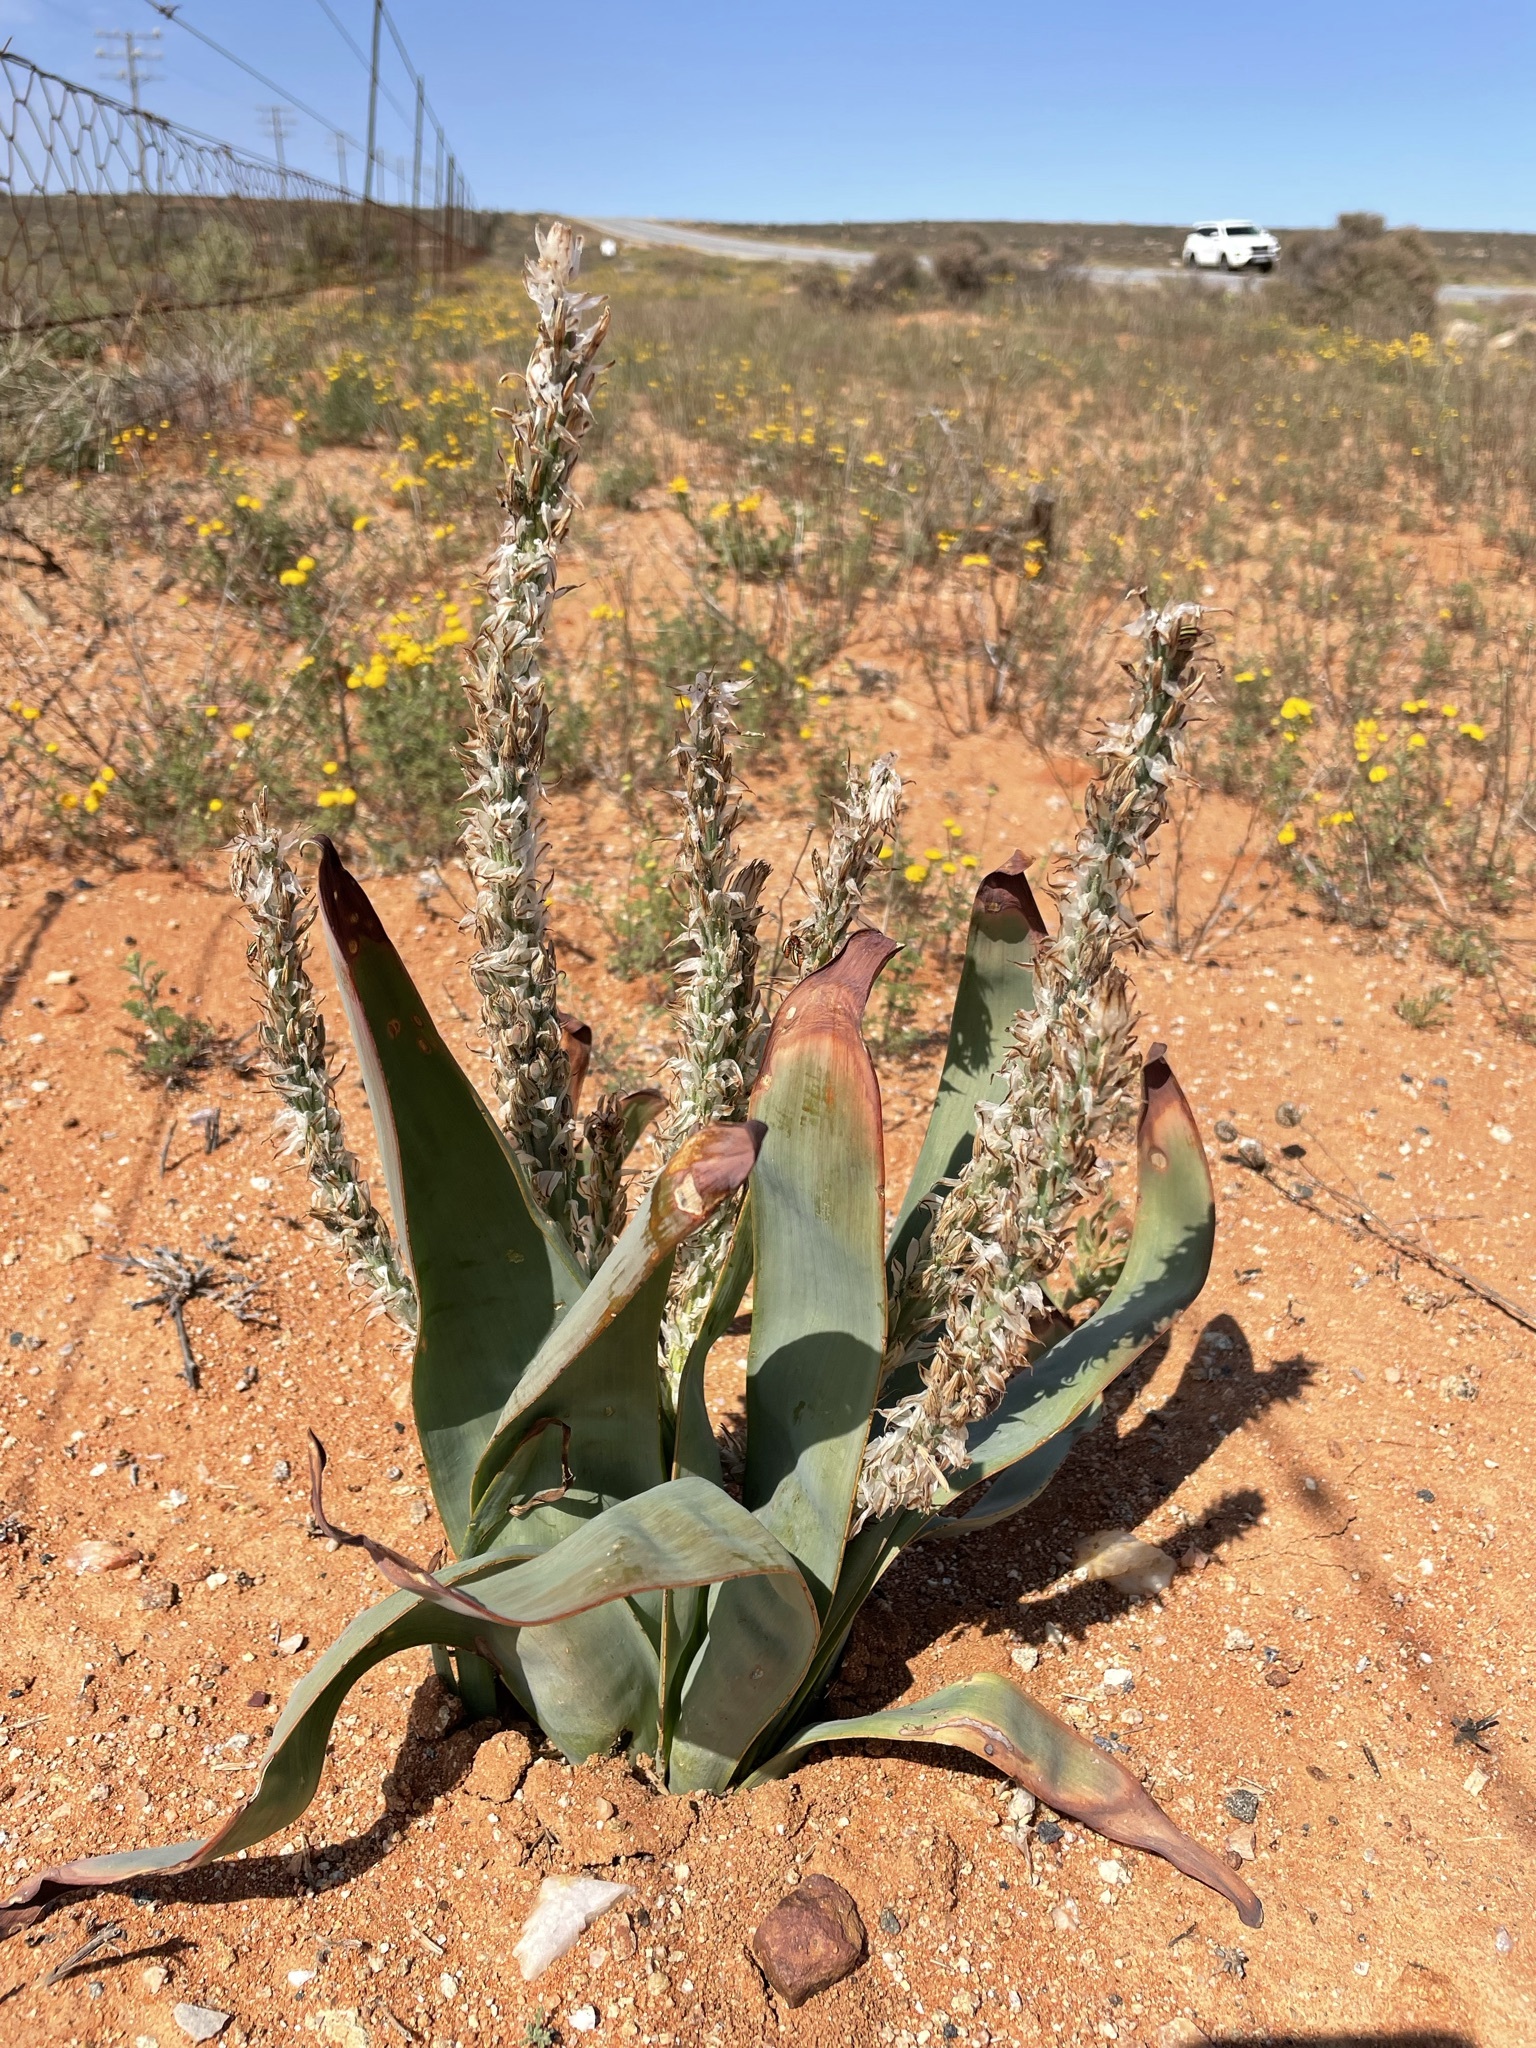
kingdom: Plantae
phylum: Tracheophyta
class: Liliopsida
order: Asparagales
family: Asphodelaceae
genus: Trachyandra
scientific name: Trachyandra falcata
